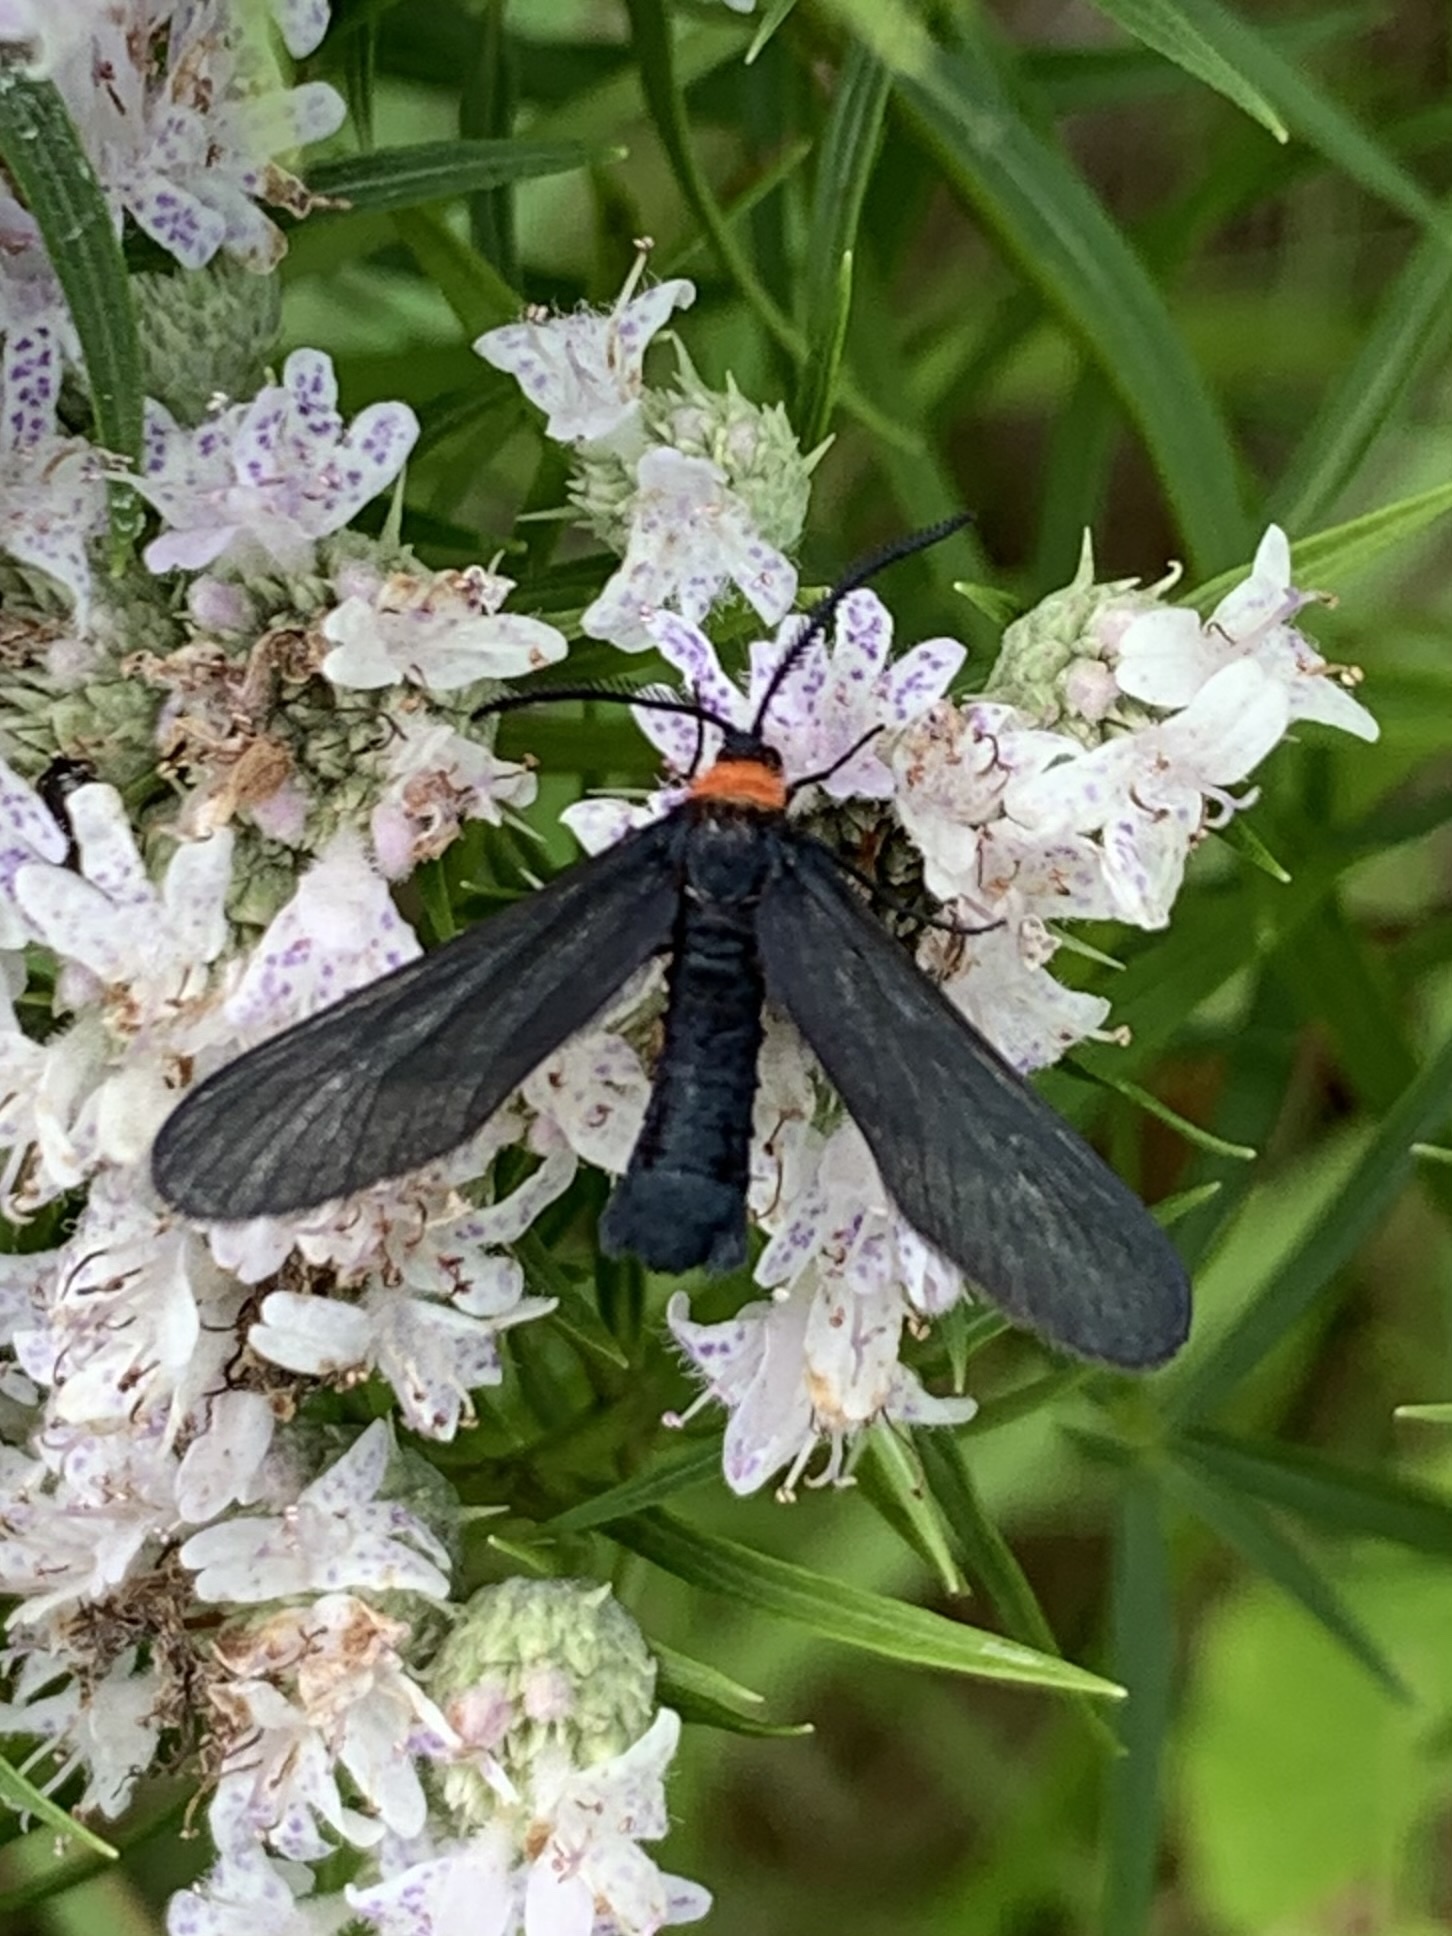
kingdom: Animalia
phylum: Arthropoda
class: Insecta
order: Lepidoptera
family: Zygaenidae
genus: Harrisina
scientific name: Harrisina americana
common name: Grapeleaf skeletonizer moth
